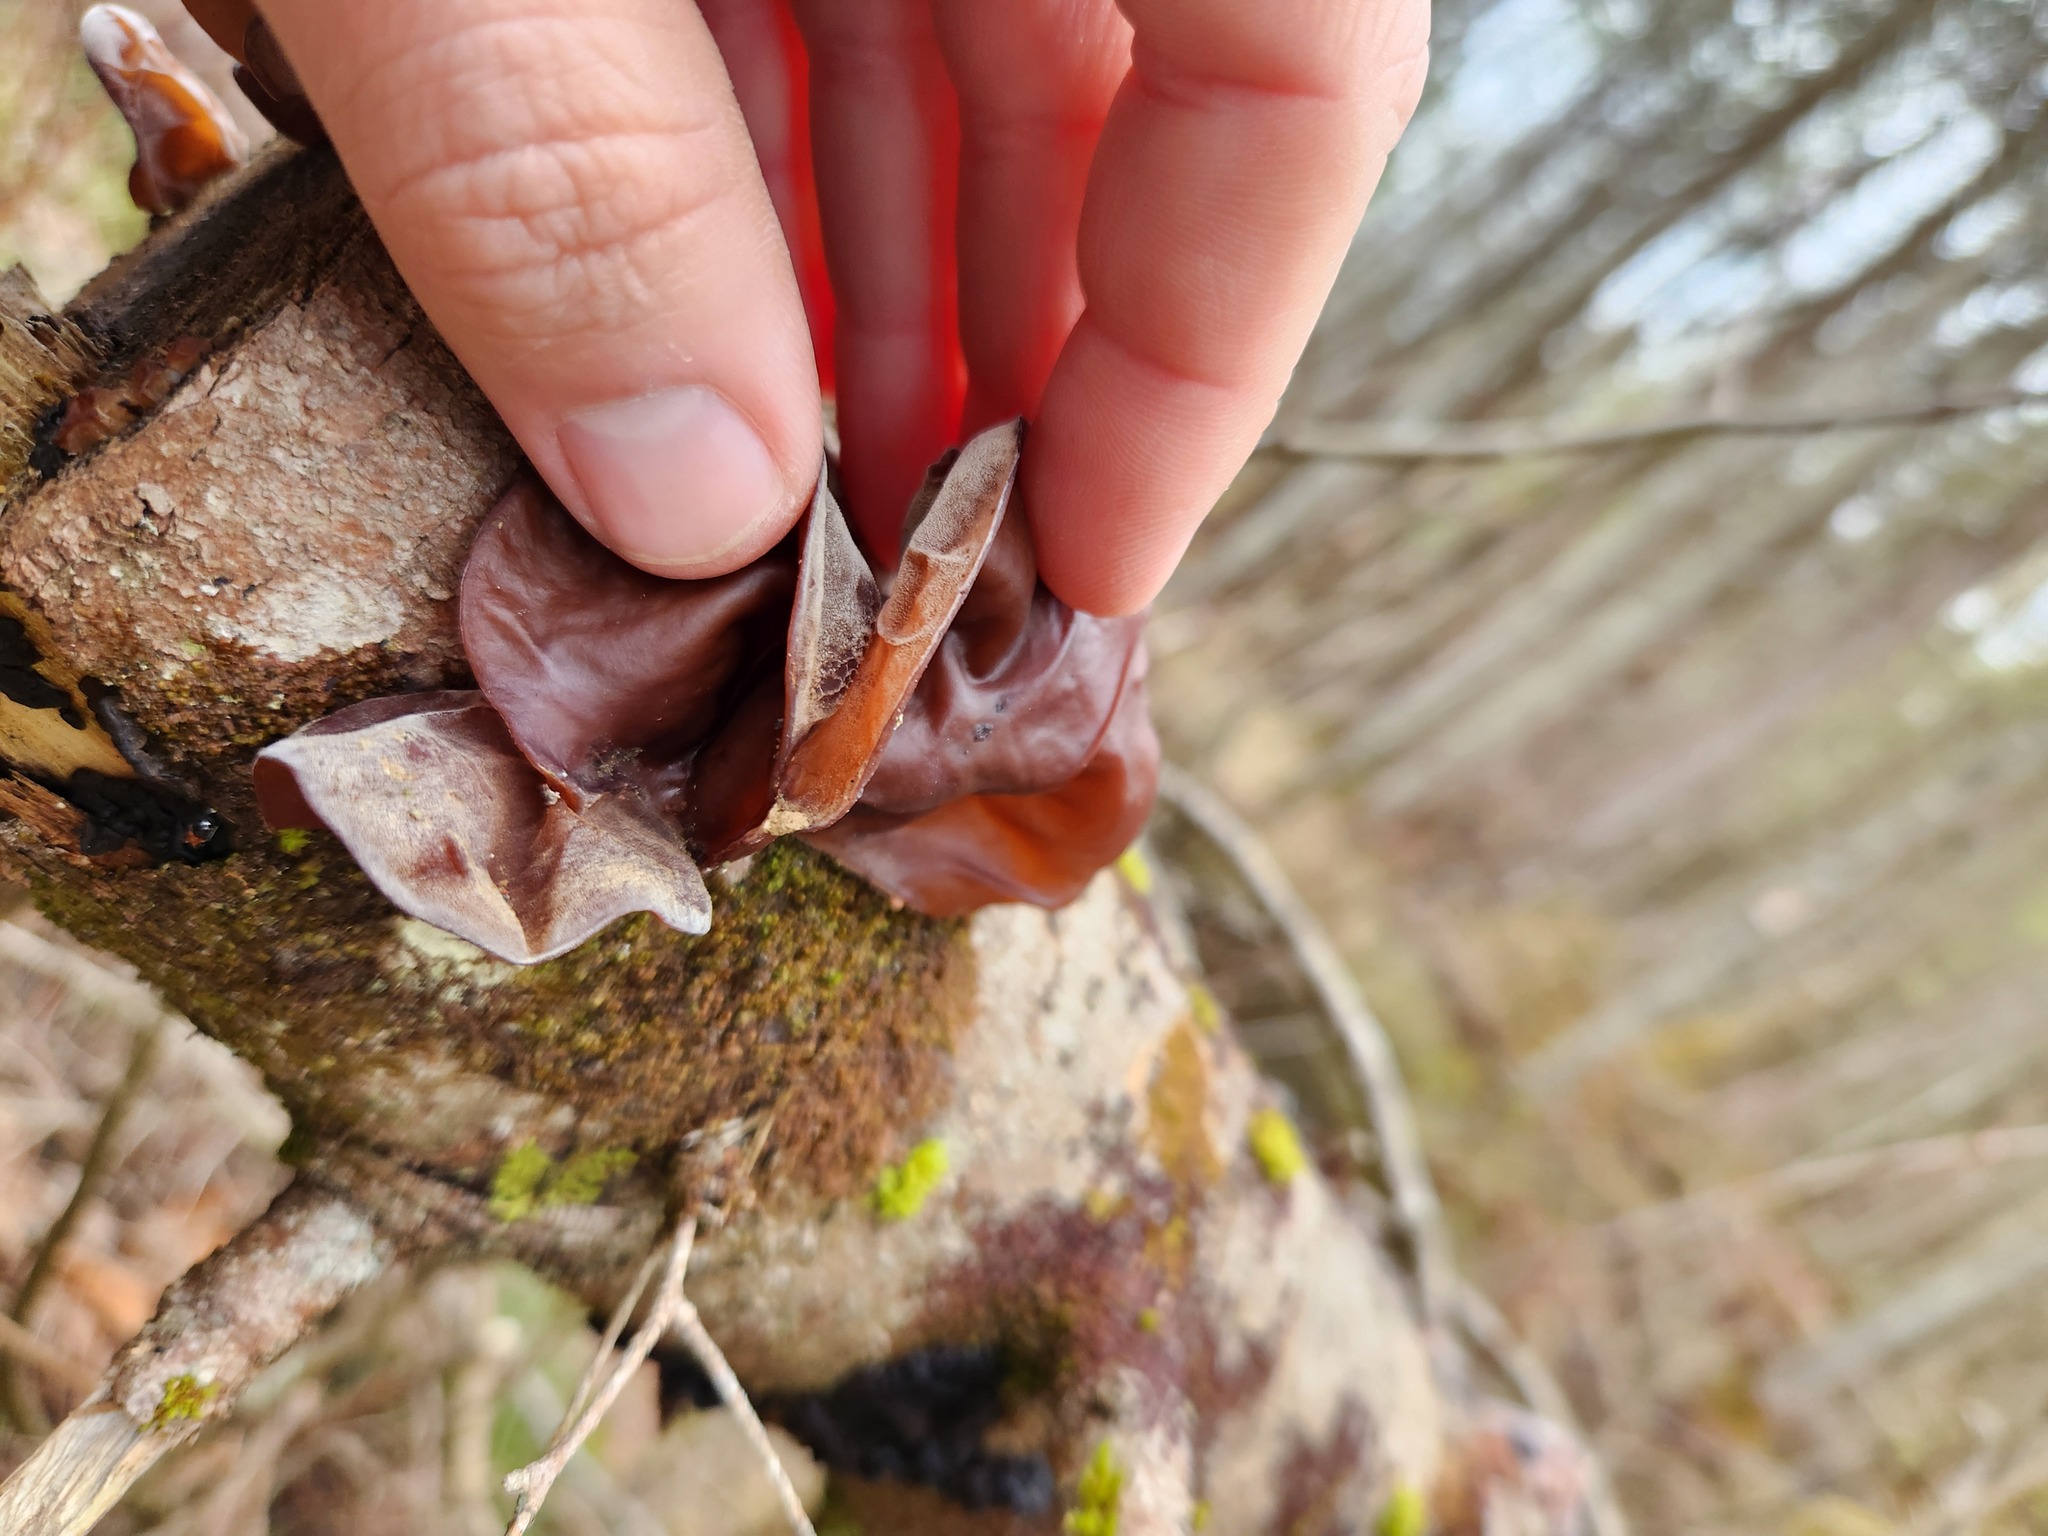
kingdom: Fungi
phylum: Basidiomycota
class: Agaricomycetes
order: Auriculariales
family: Auriculariaceae
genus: Auricularia
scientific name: Auricularia americana
